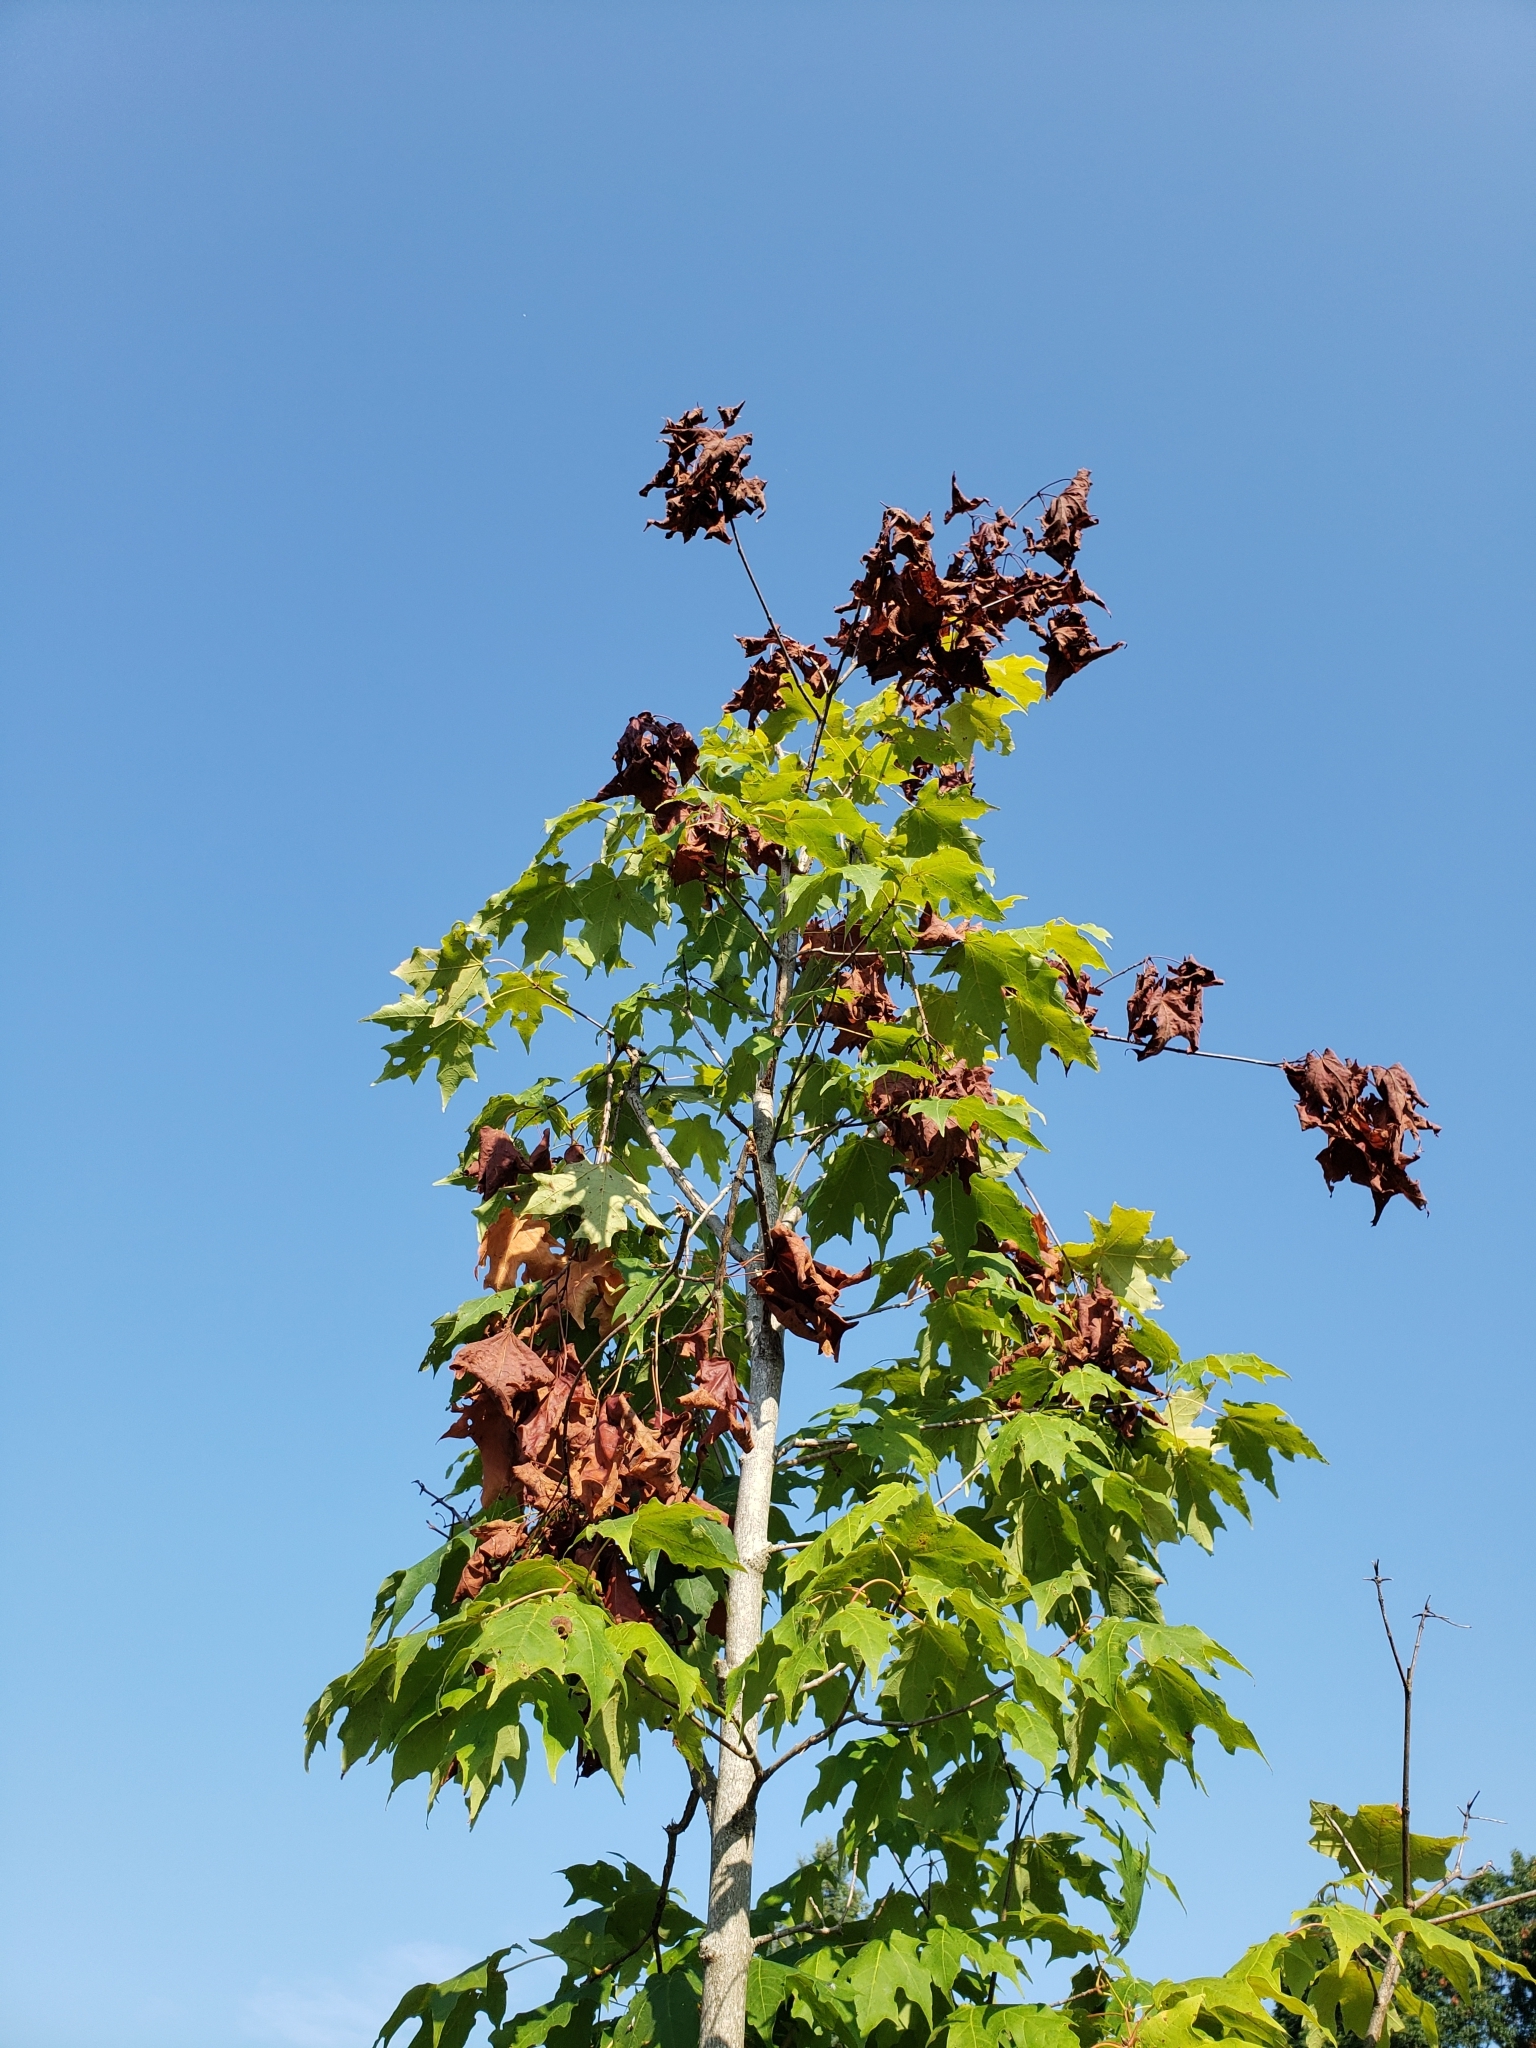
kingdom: Plantae
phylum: Tracheophyta
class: Magnoliopsida
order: Sapindales
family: Sapindaceae
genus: Acer
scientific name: Acer saccharum
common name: Sugar maple
